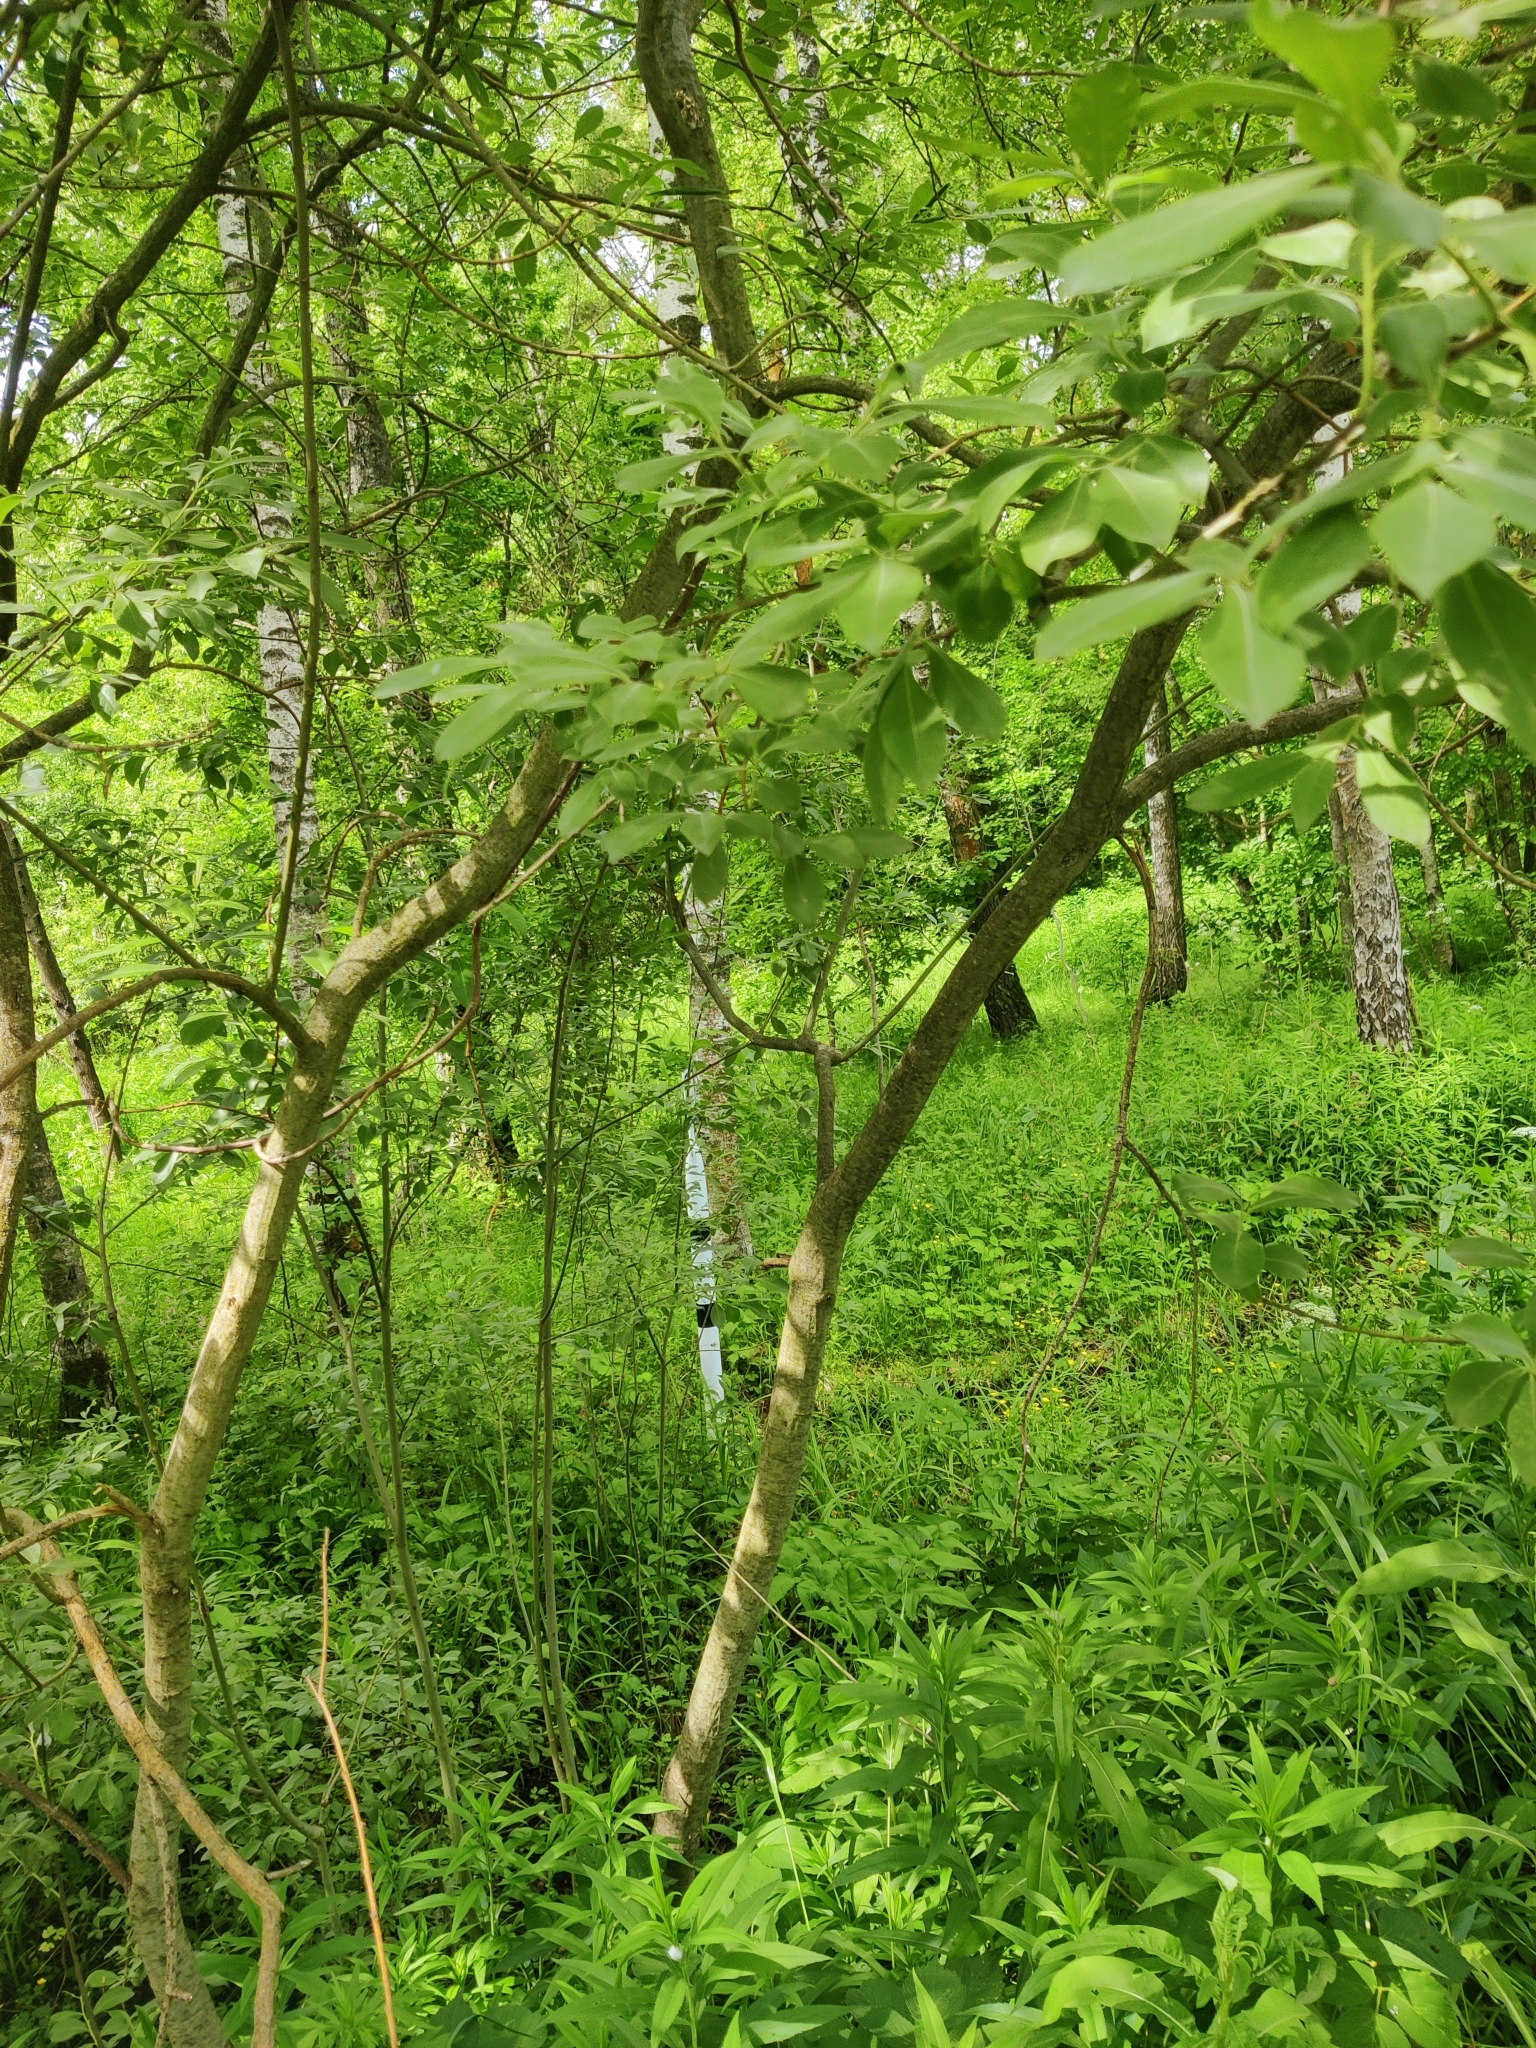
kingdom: Plantae
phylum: Tracheophyta
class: Magnoliopsida
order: Malpighiales
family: Salicaceae
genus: Salix
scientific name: Salix cinerea
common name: Common sallow
